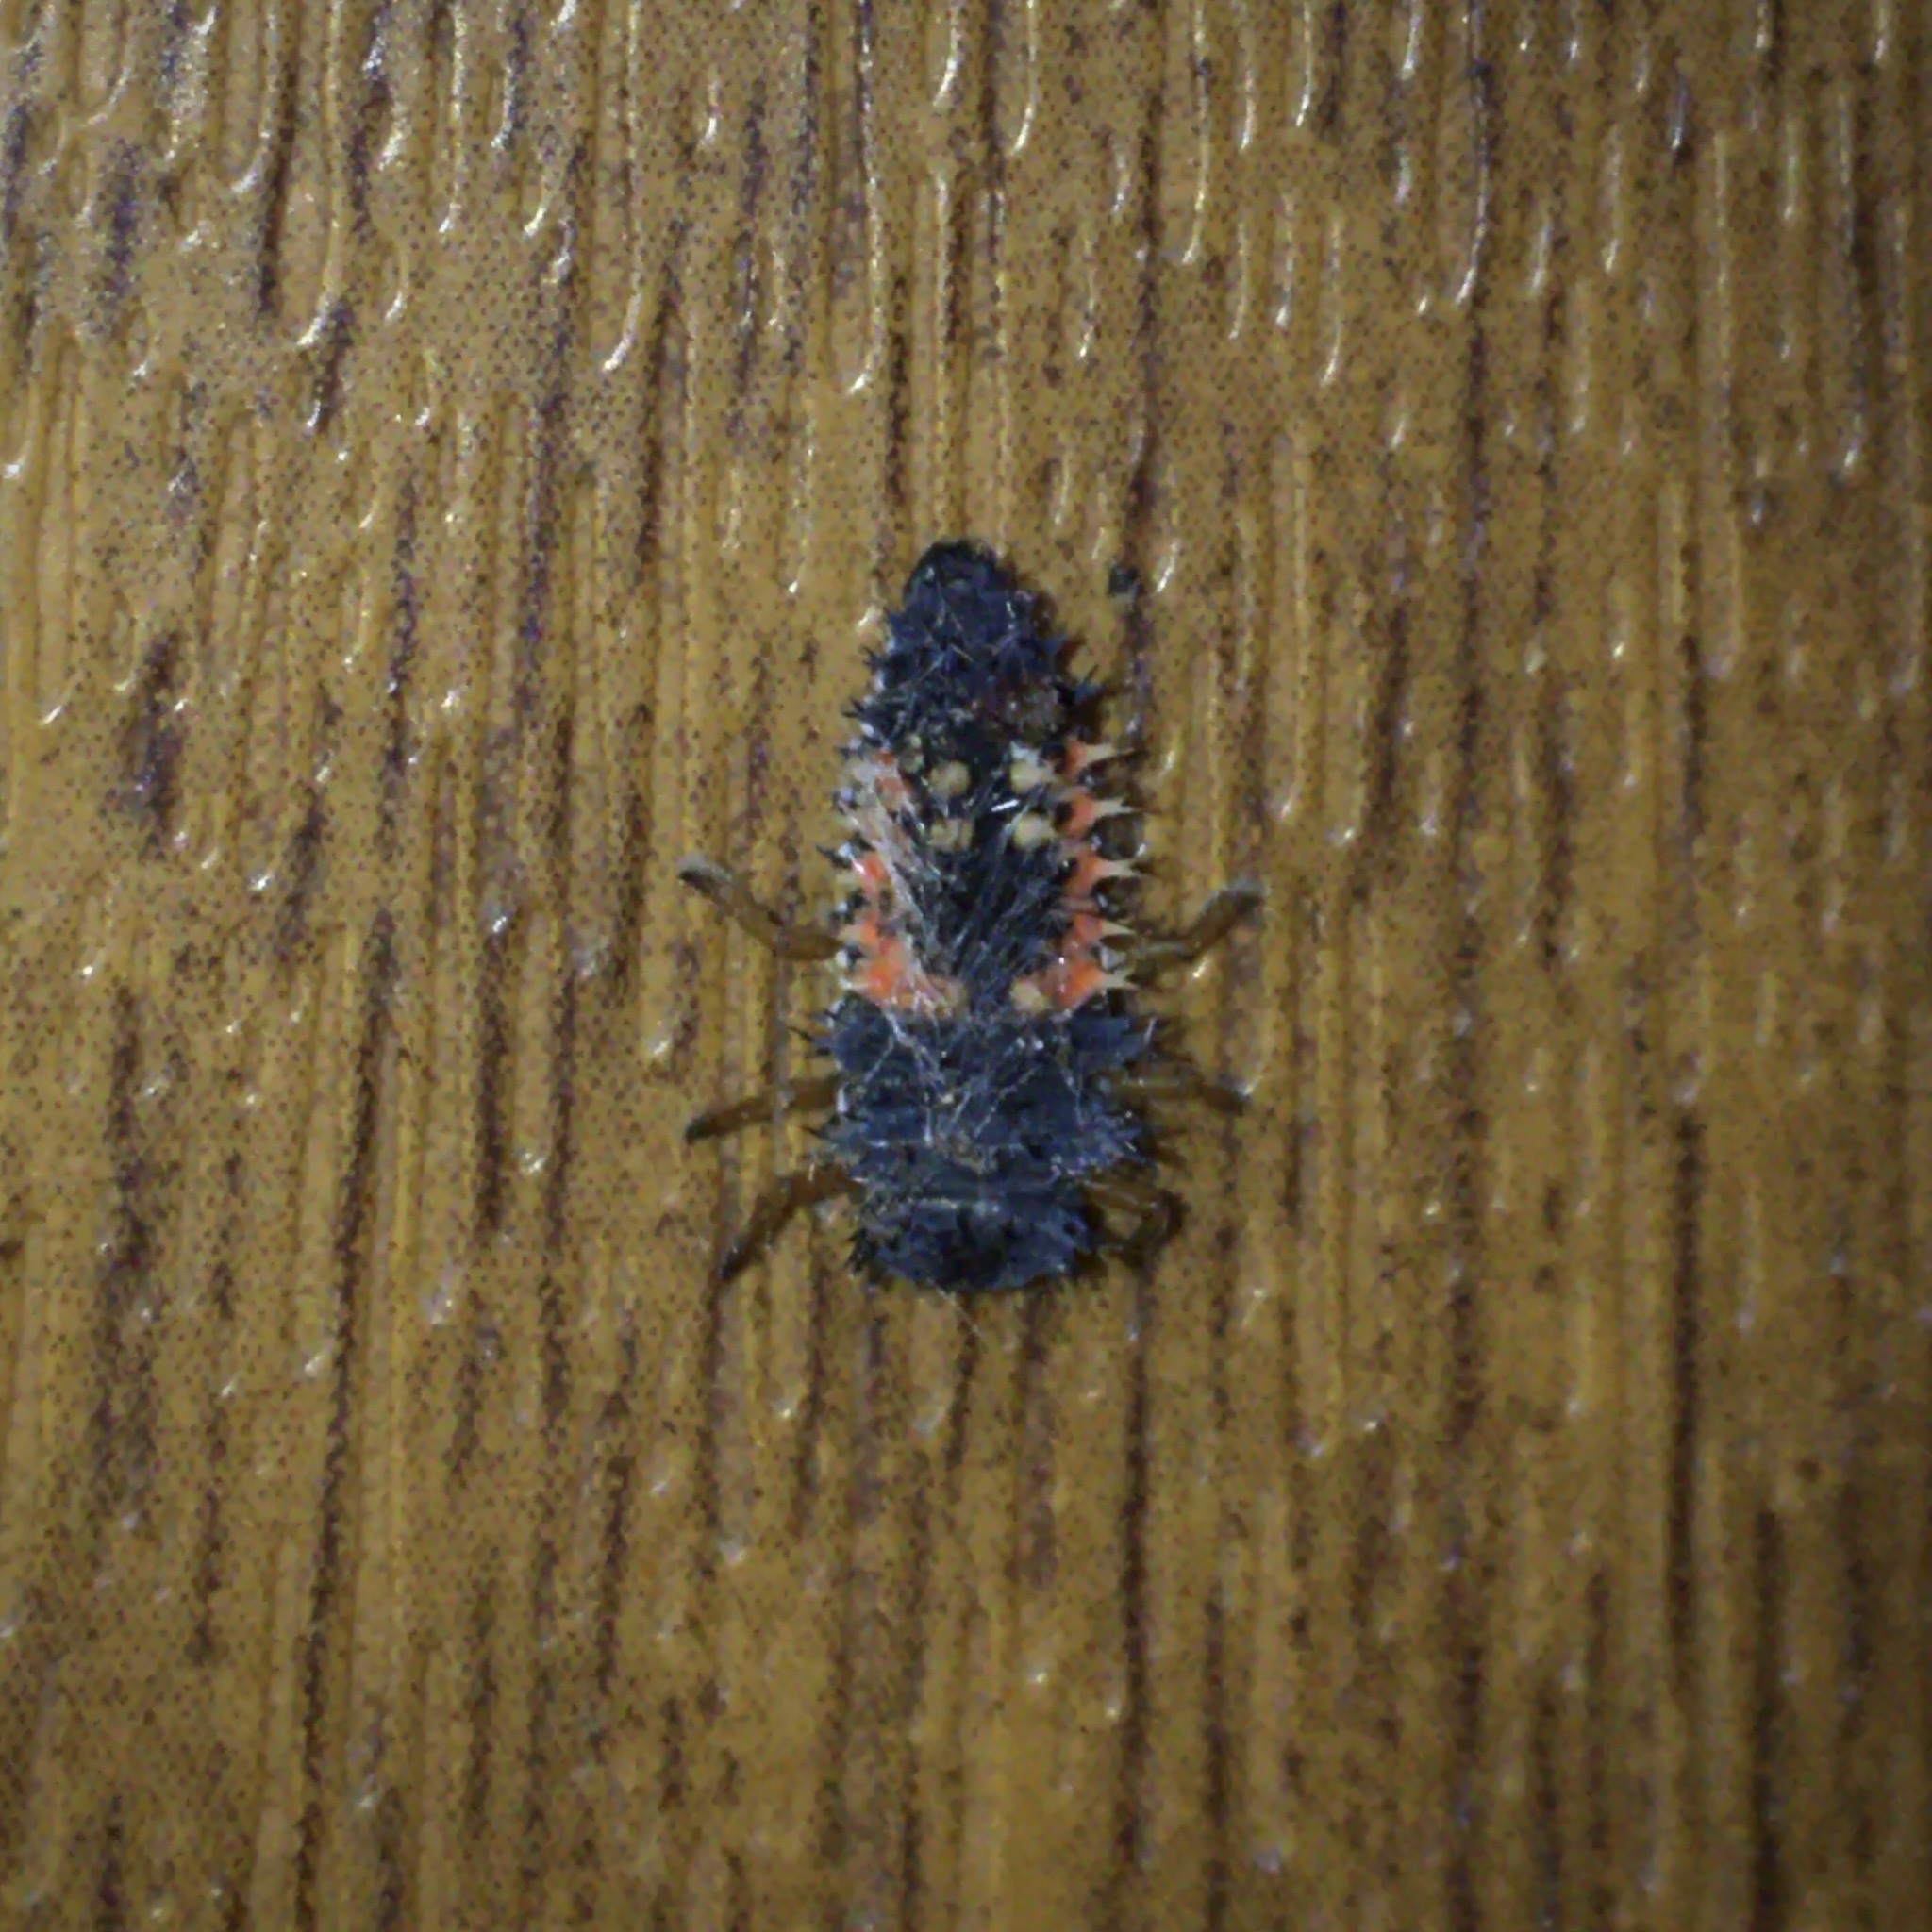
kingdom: Animalia
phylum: Arthropoda
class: Insecta
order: Coleoptera
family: Coccinellidae
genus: Harmonia
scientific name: Harmonia axyridis
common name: Harlequin ladybird
